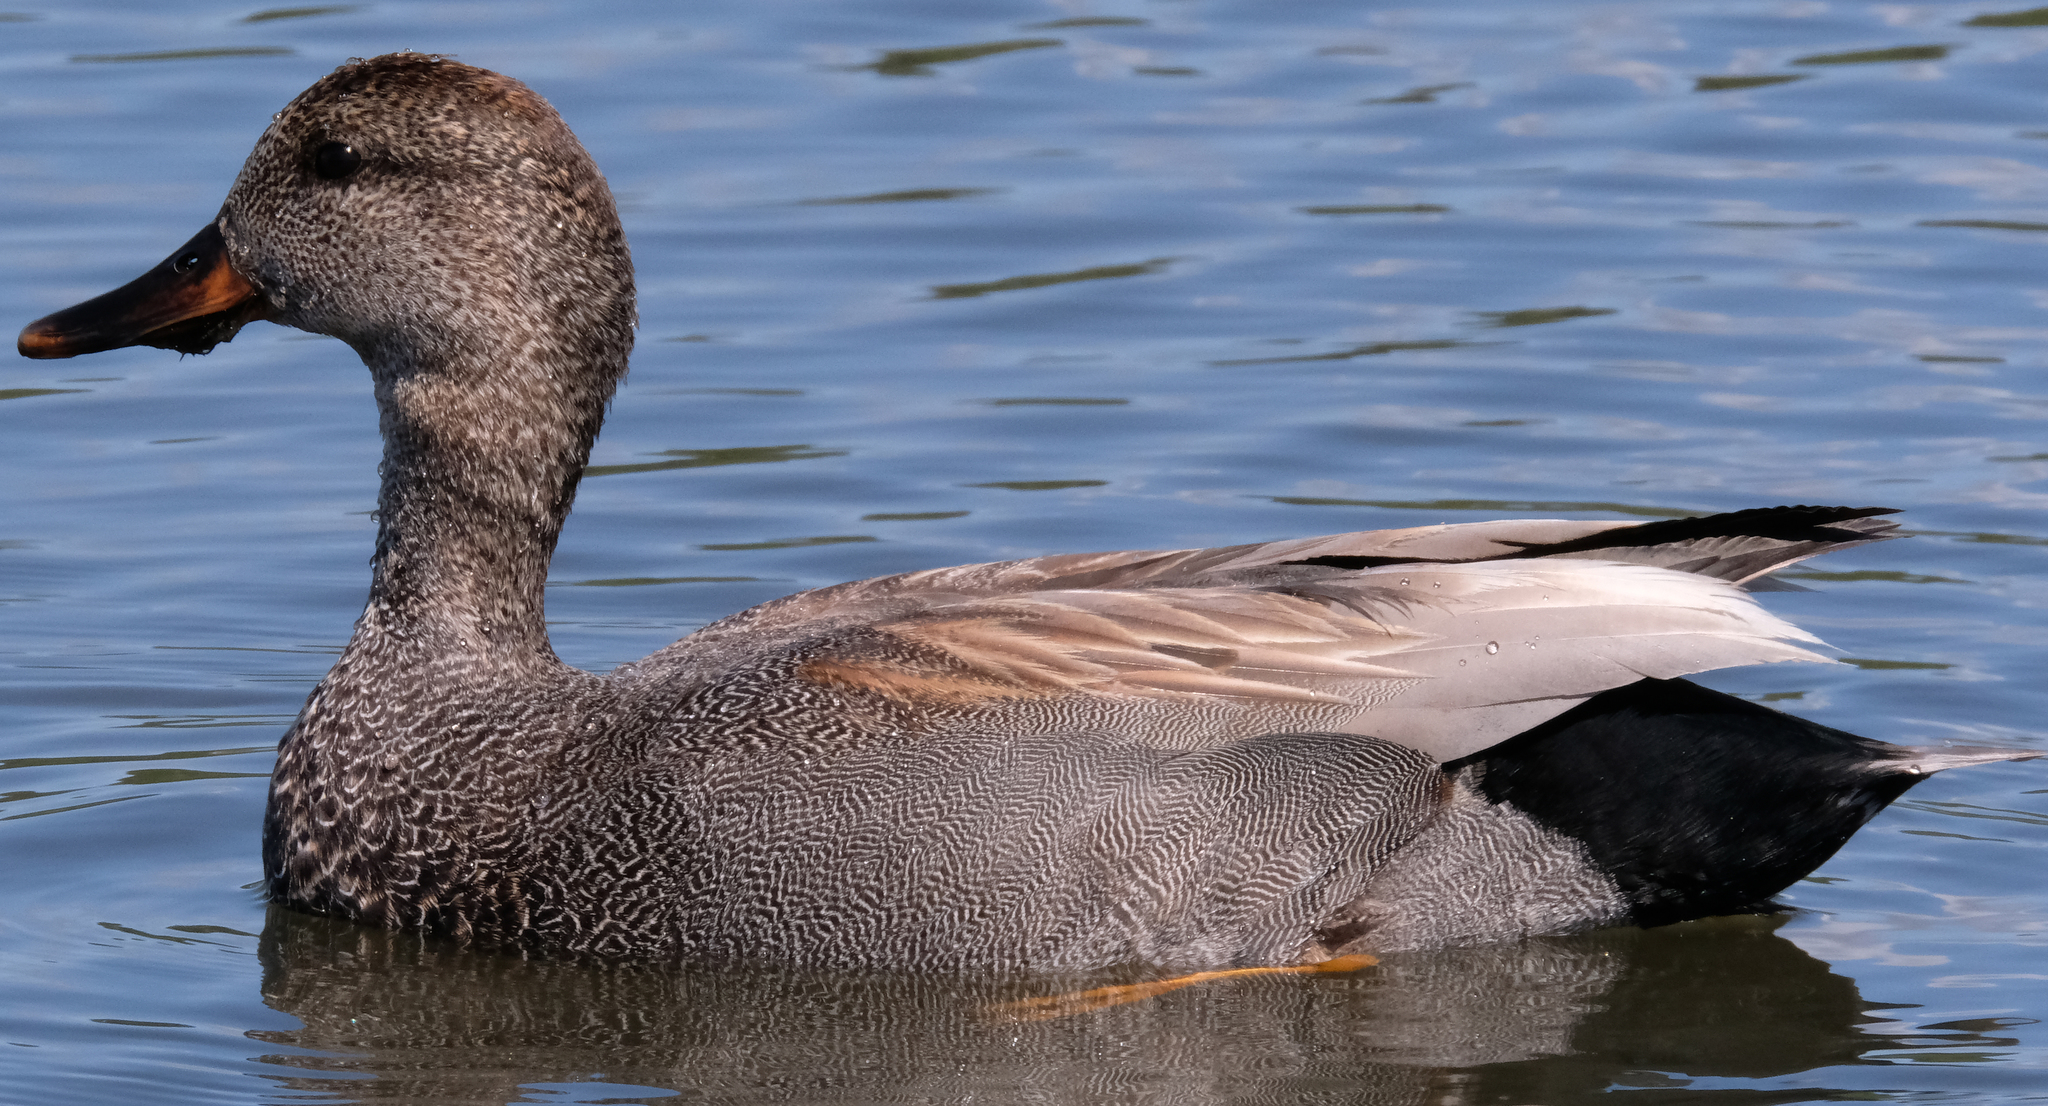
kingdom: Animalia
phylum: Chordata
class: Aves
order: Anseriformes
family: Anatidae
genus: Mareca
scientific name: Mareca strepera
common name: Gadwall
